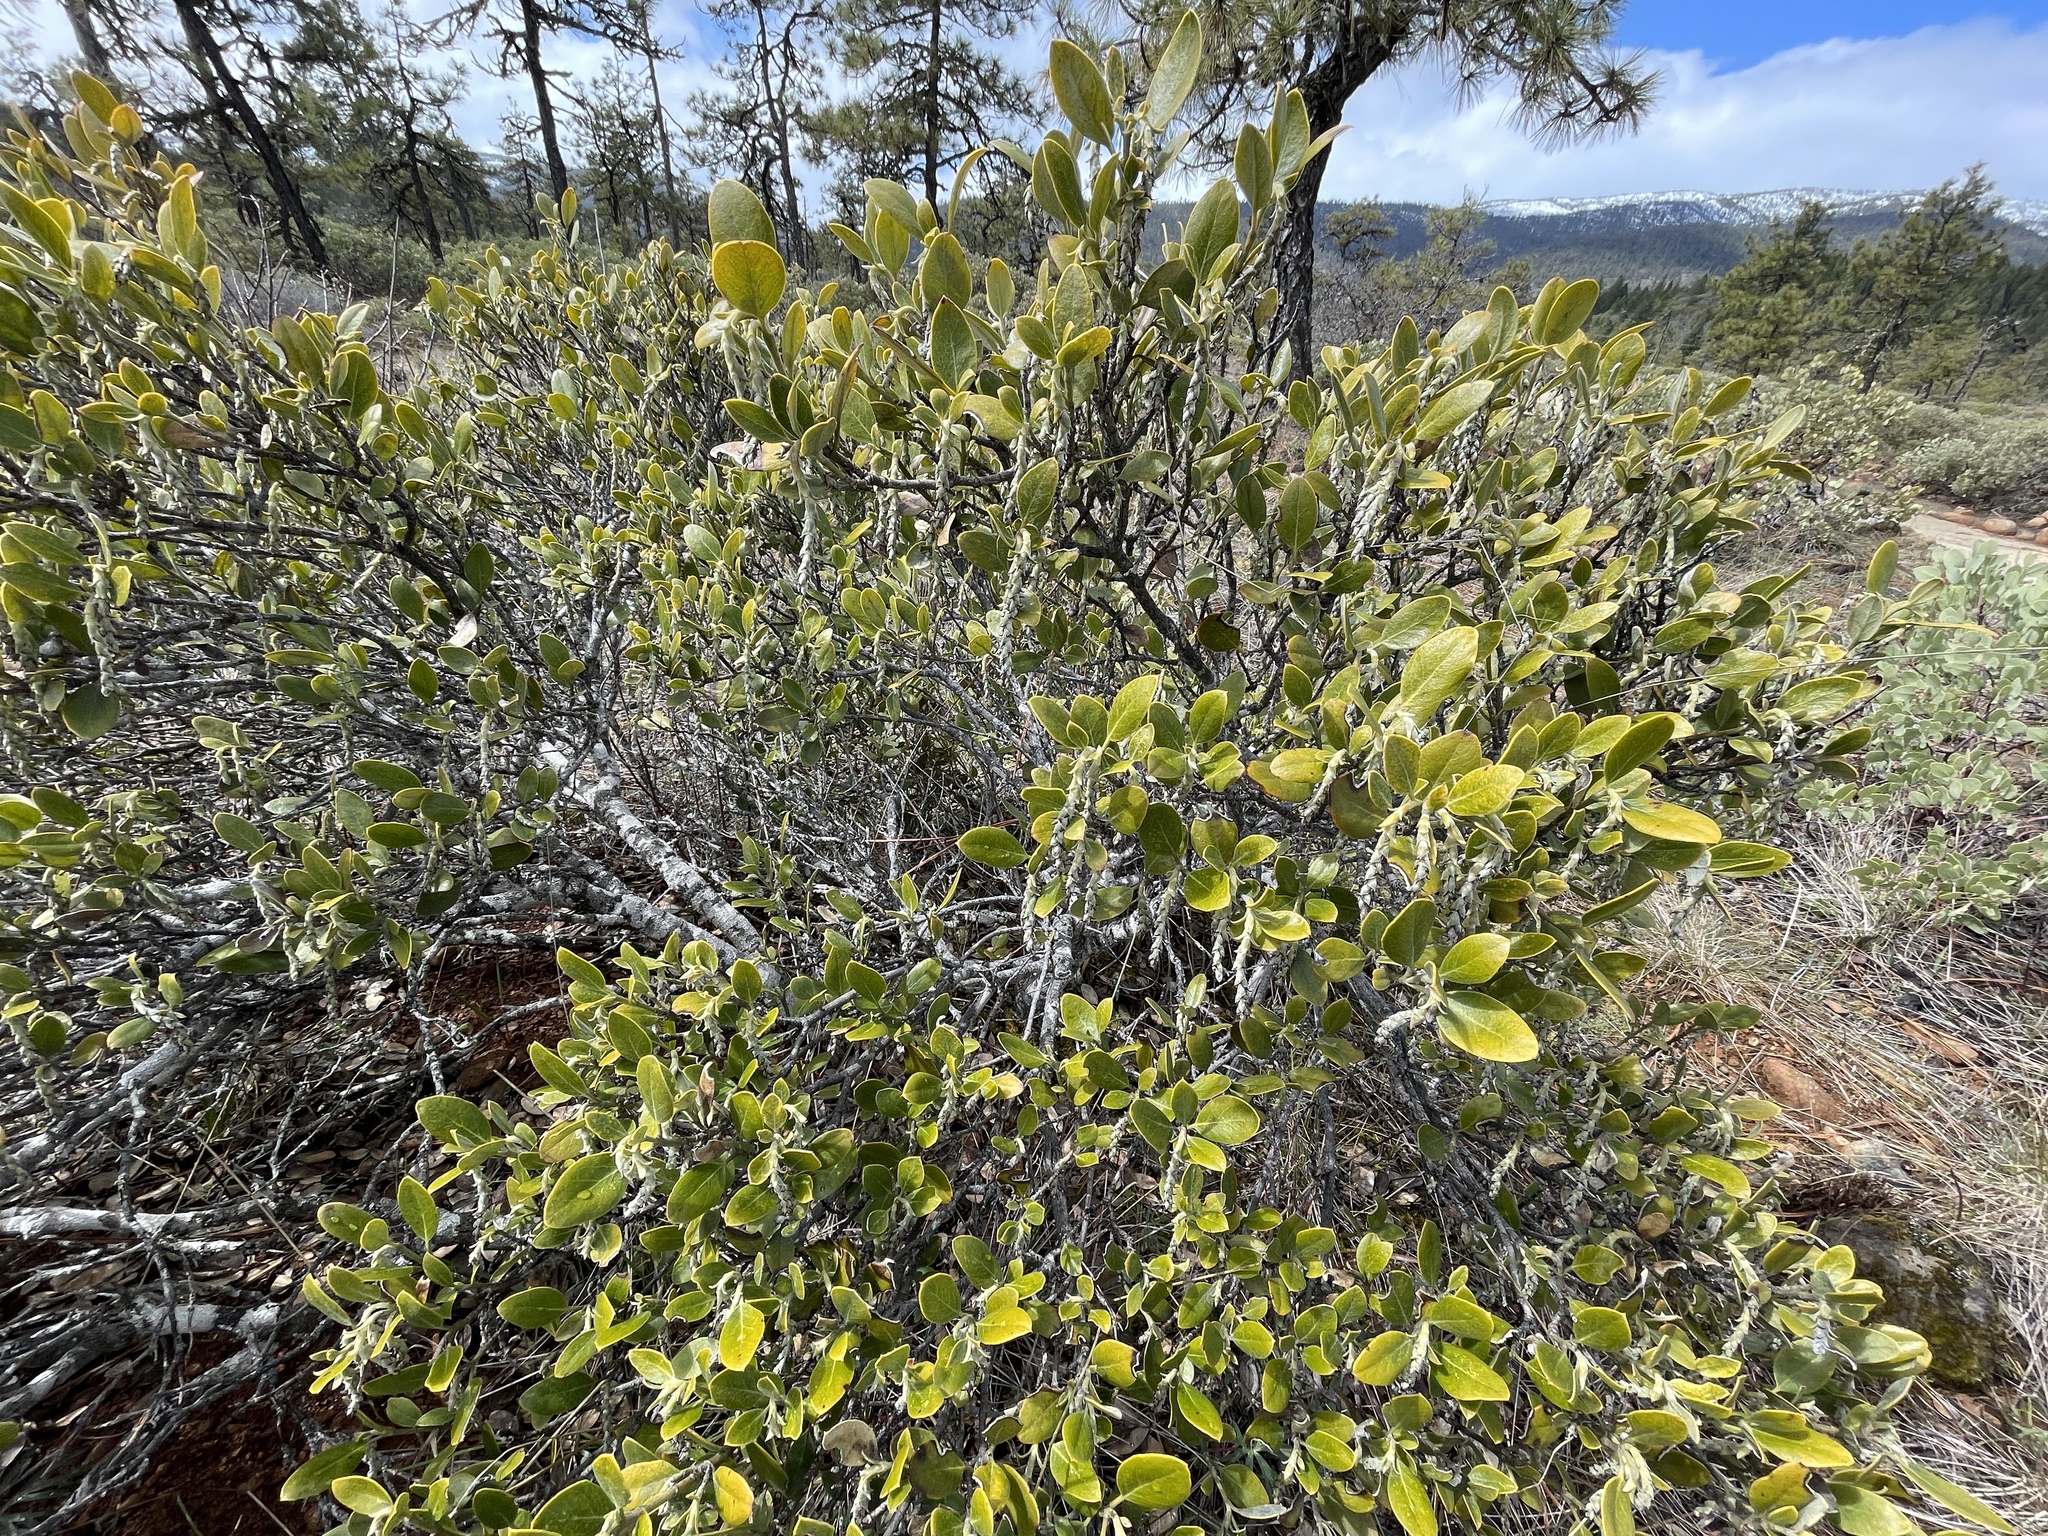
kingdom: Plantae
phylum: Tracheophyta
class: Magnoliopsida
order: Garryales
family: Garryaceae
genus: Garrya
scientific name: Garrya buxifolia
